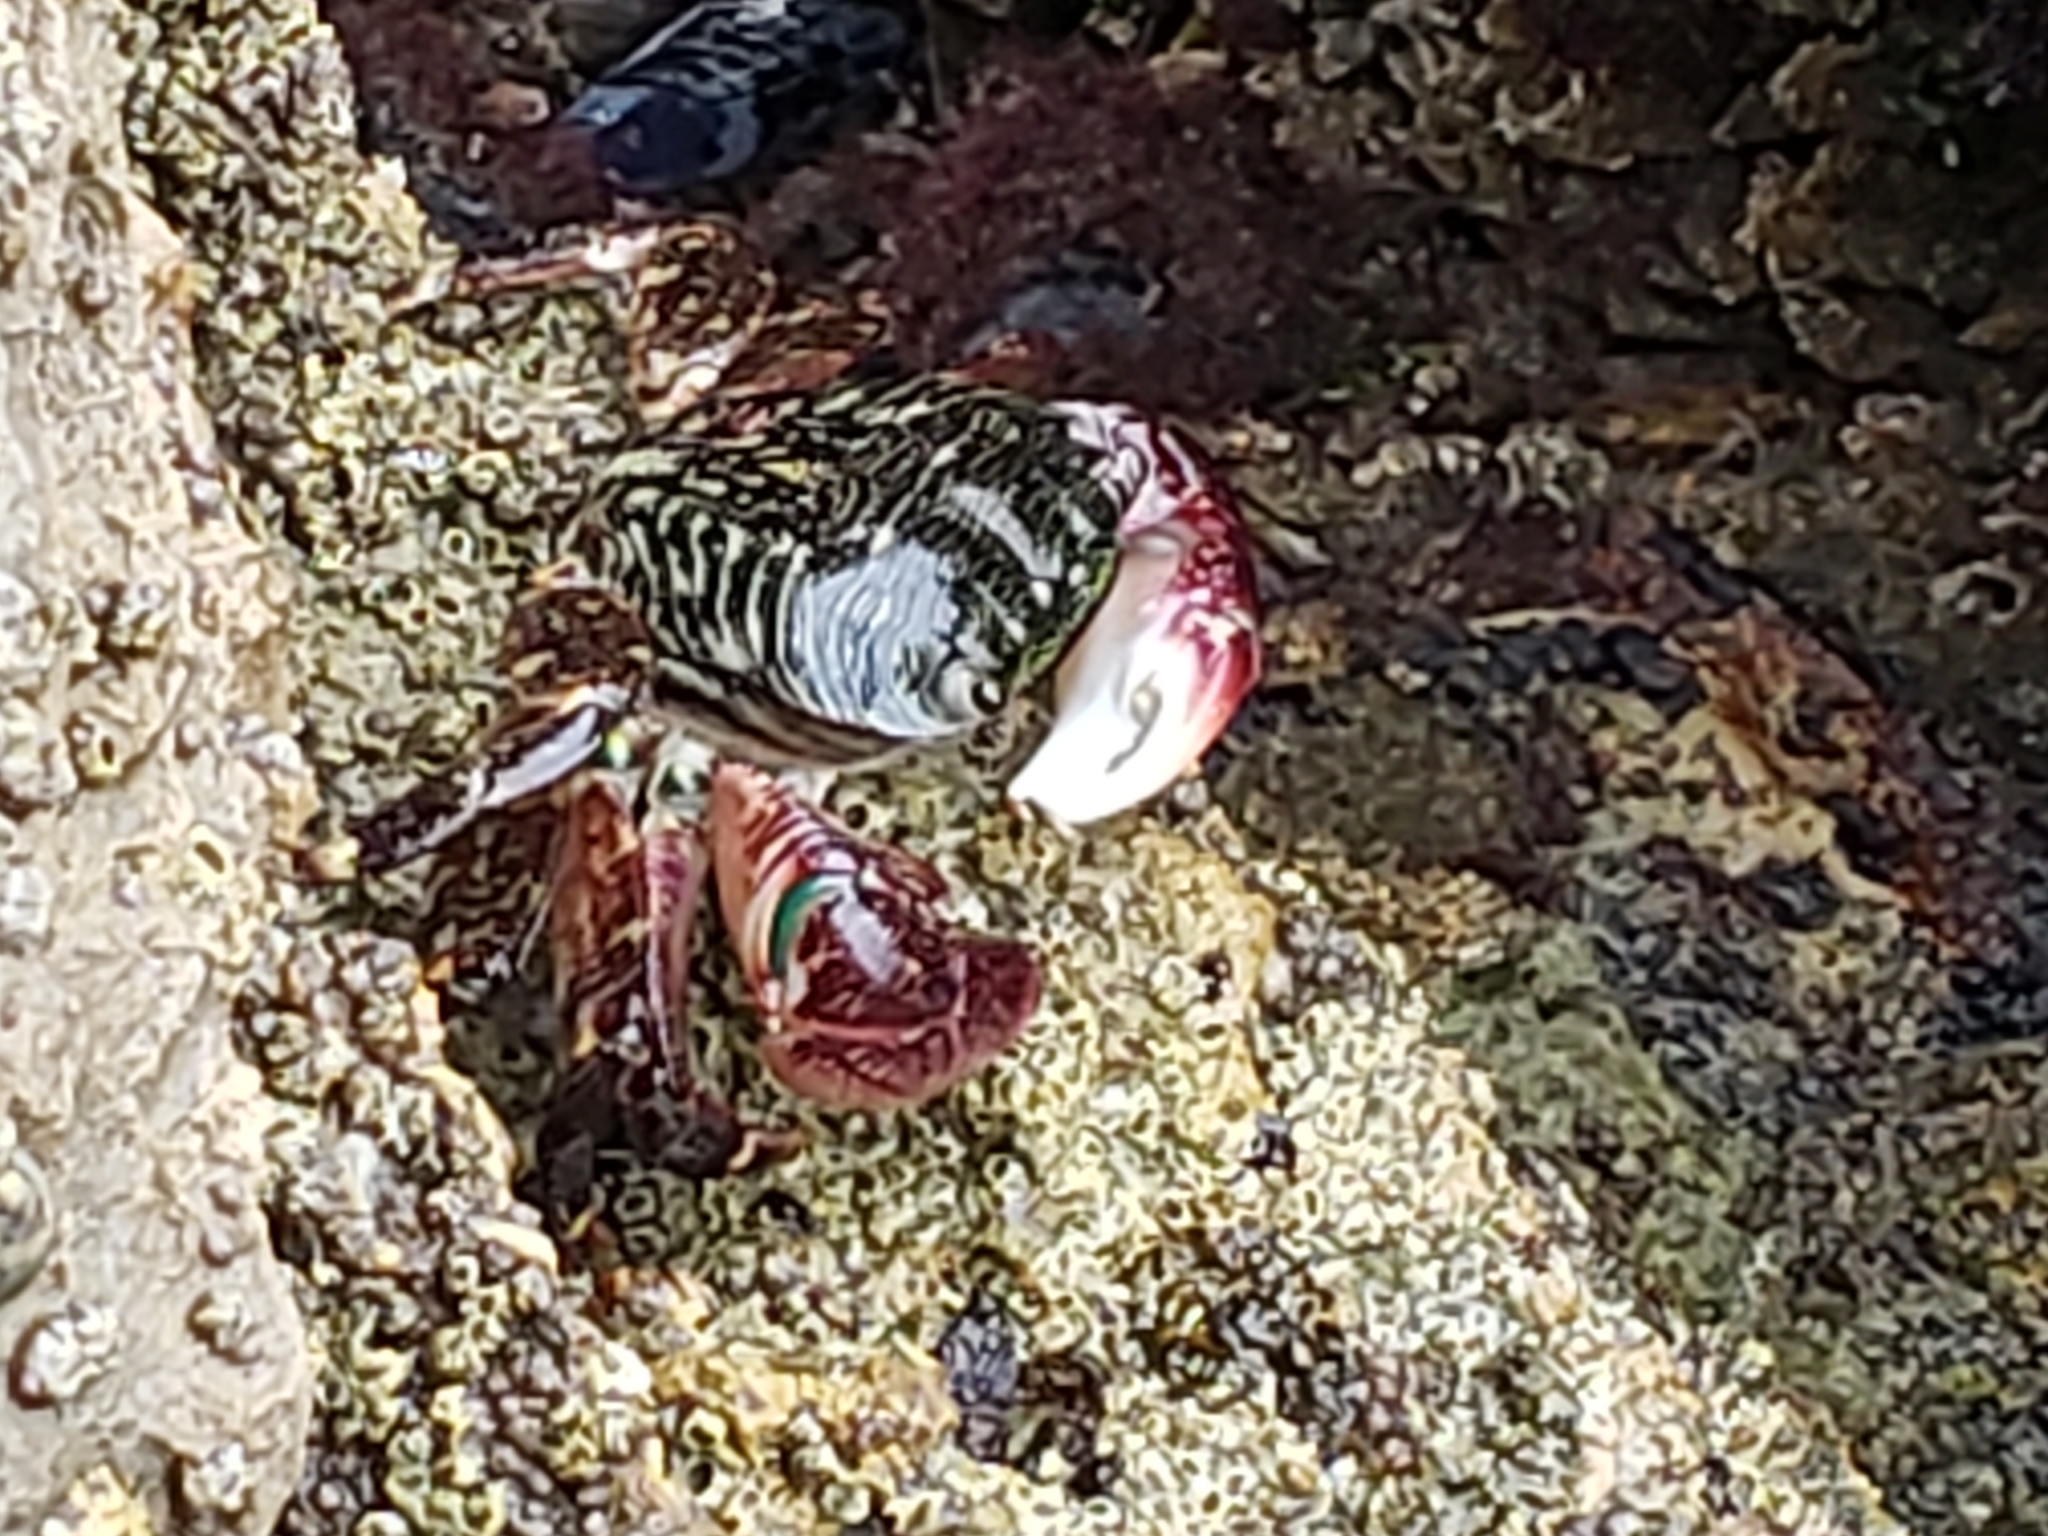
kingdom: Animalia
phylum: Arthropoda
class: Malacostraca
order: Decapoda
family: Grapsidae
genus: Pachygrapsus
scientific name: Pachygrapsus crassipes
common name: Striped shore crab
